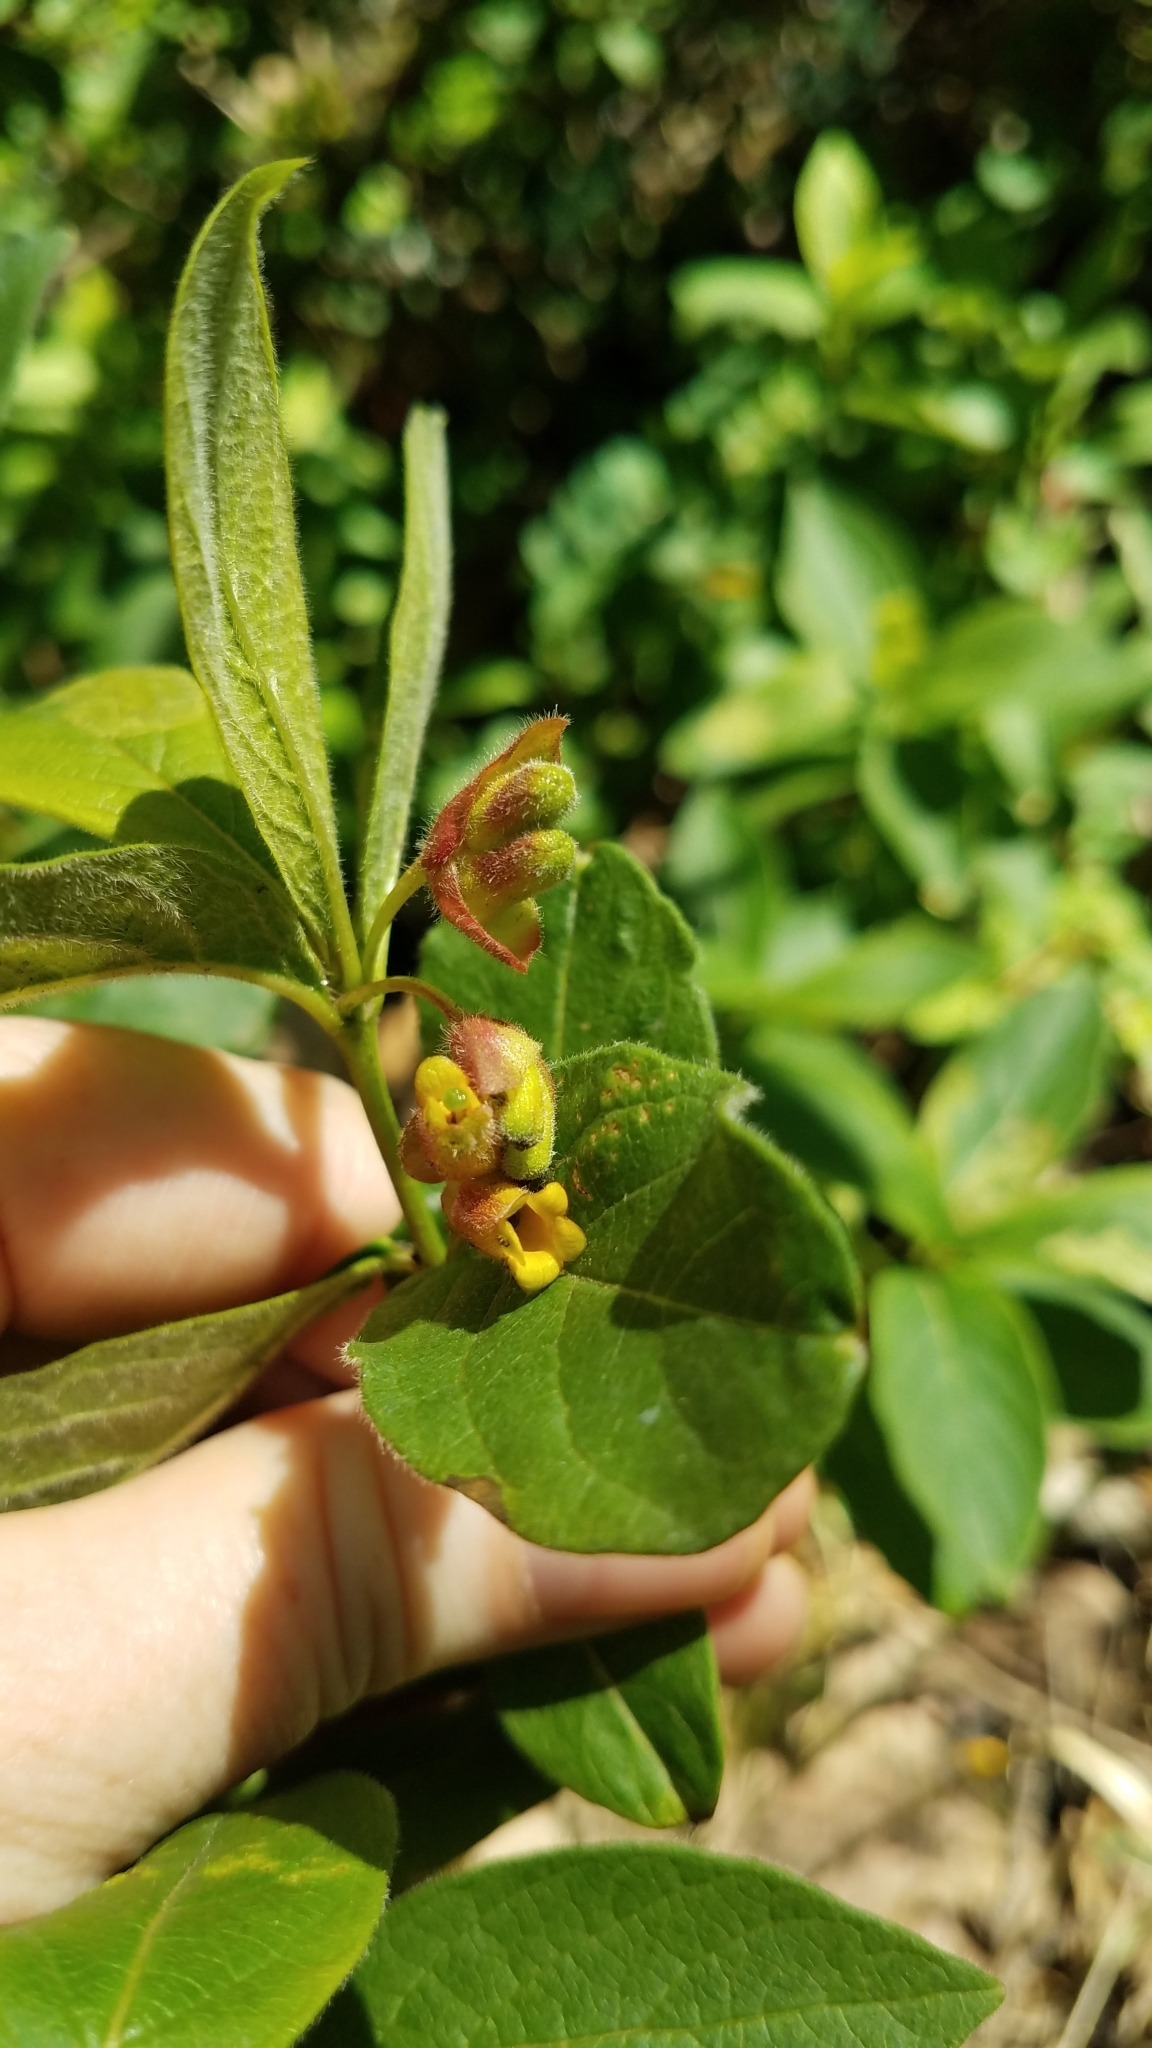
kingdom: Plantae
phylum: Tracheophyta
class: Magnoliopsida
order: Dipsacales
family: Caprifoliaceae
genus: Lonicera
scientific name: Lonicera involucrata
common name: Californian honeysuckle
